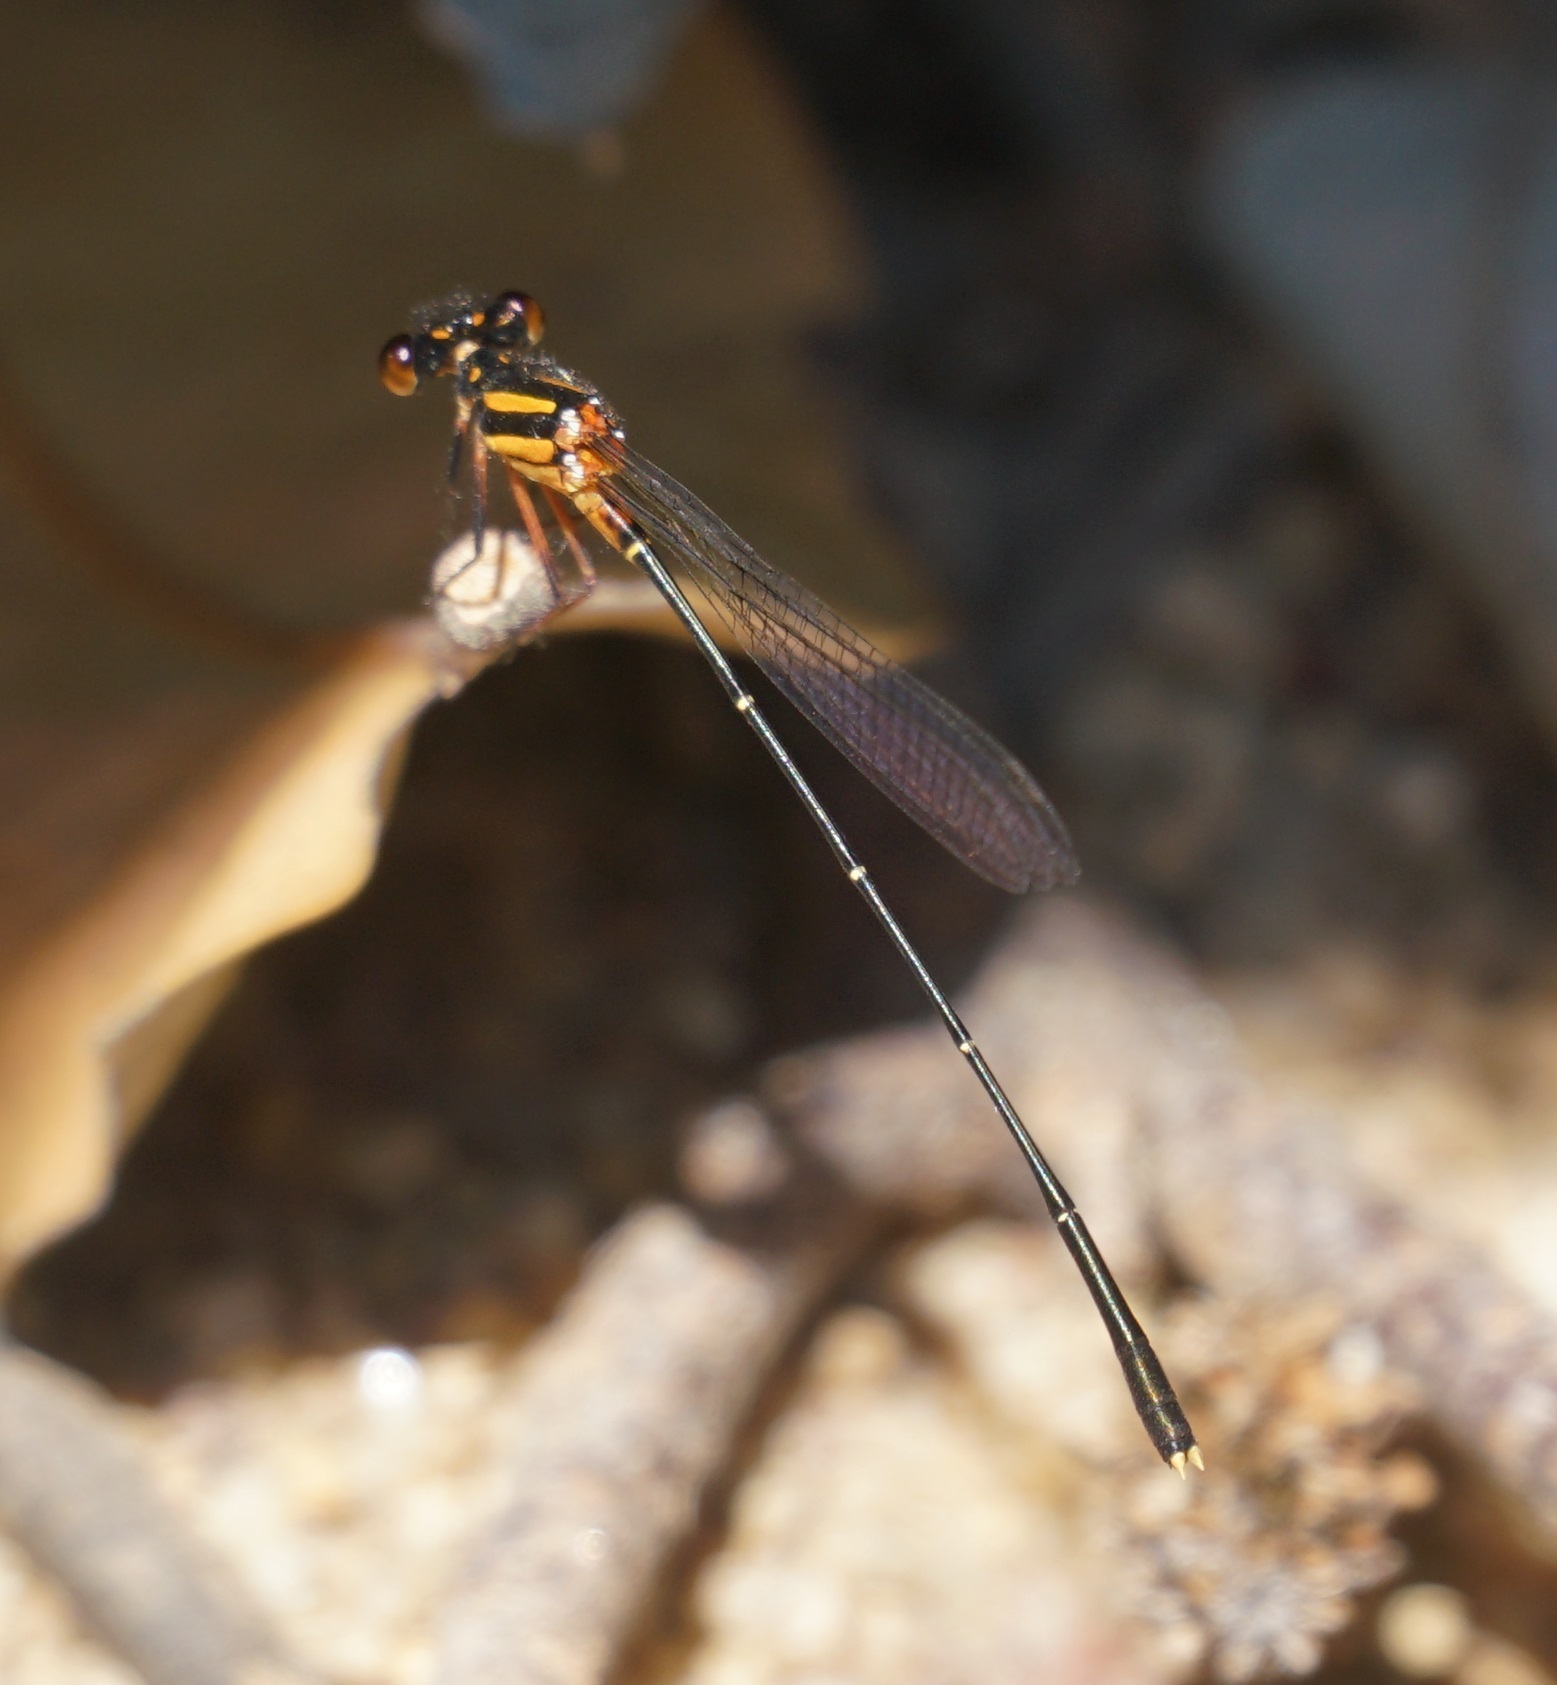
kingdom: Animalia
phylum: Arthropoda
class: Insecta
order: Odonata
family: Platycnemididae
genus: Nososticta
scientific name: Nososticta solida
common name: Orange threadtail
